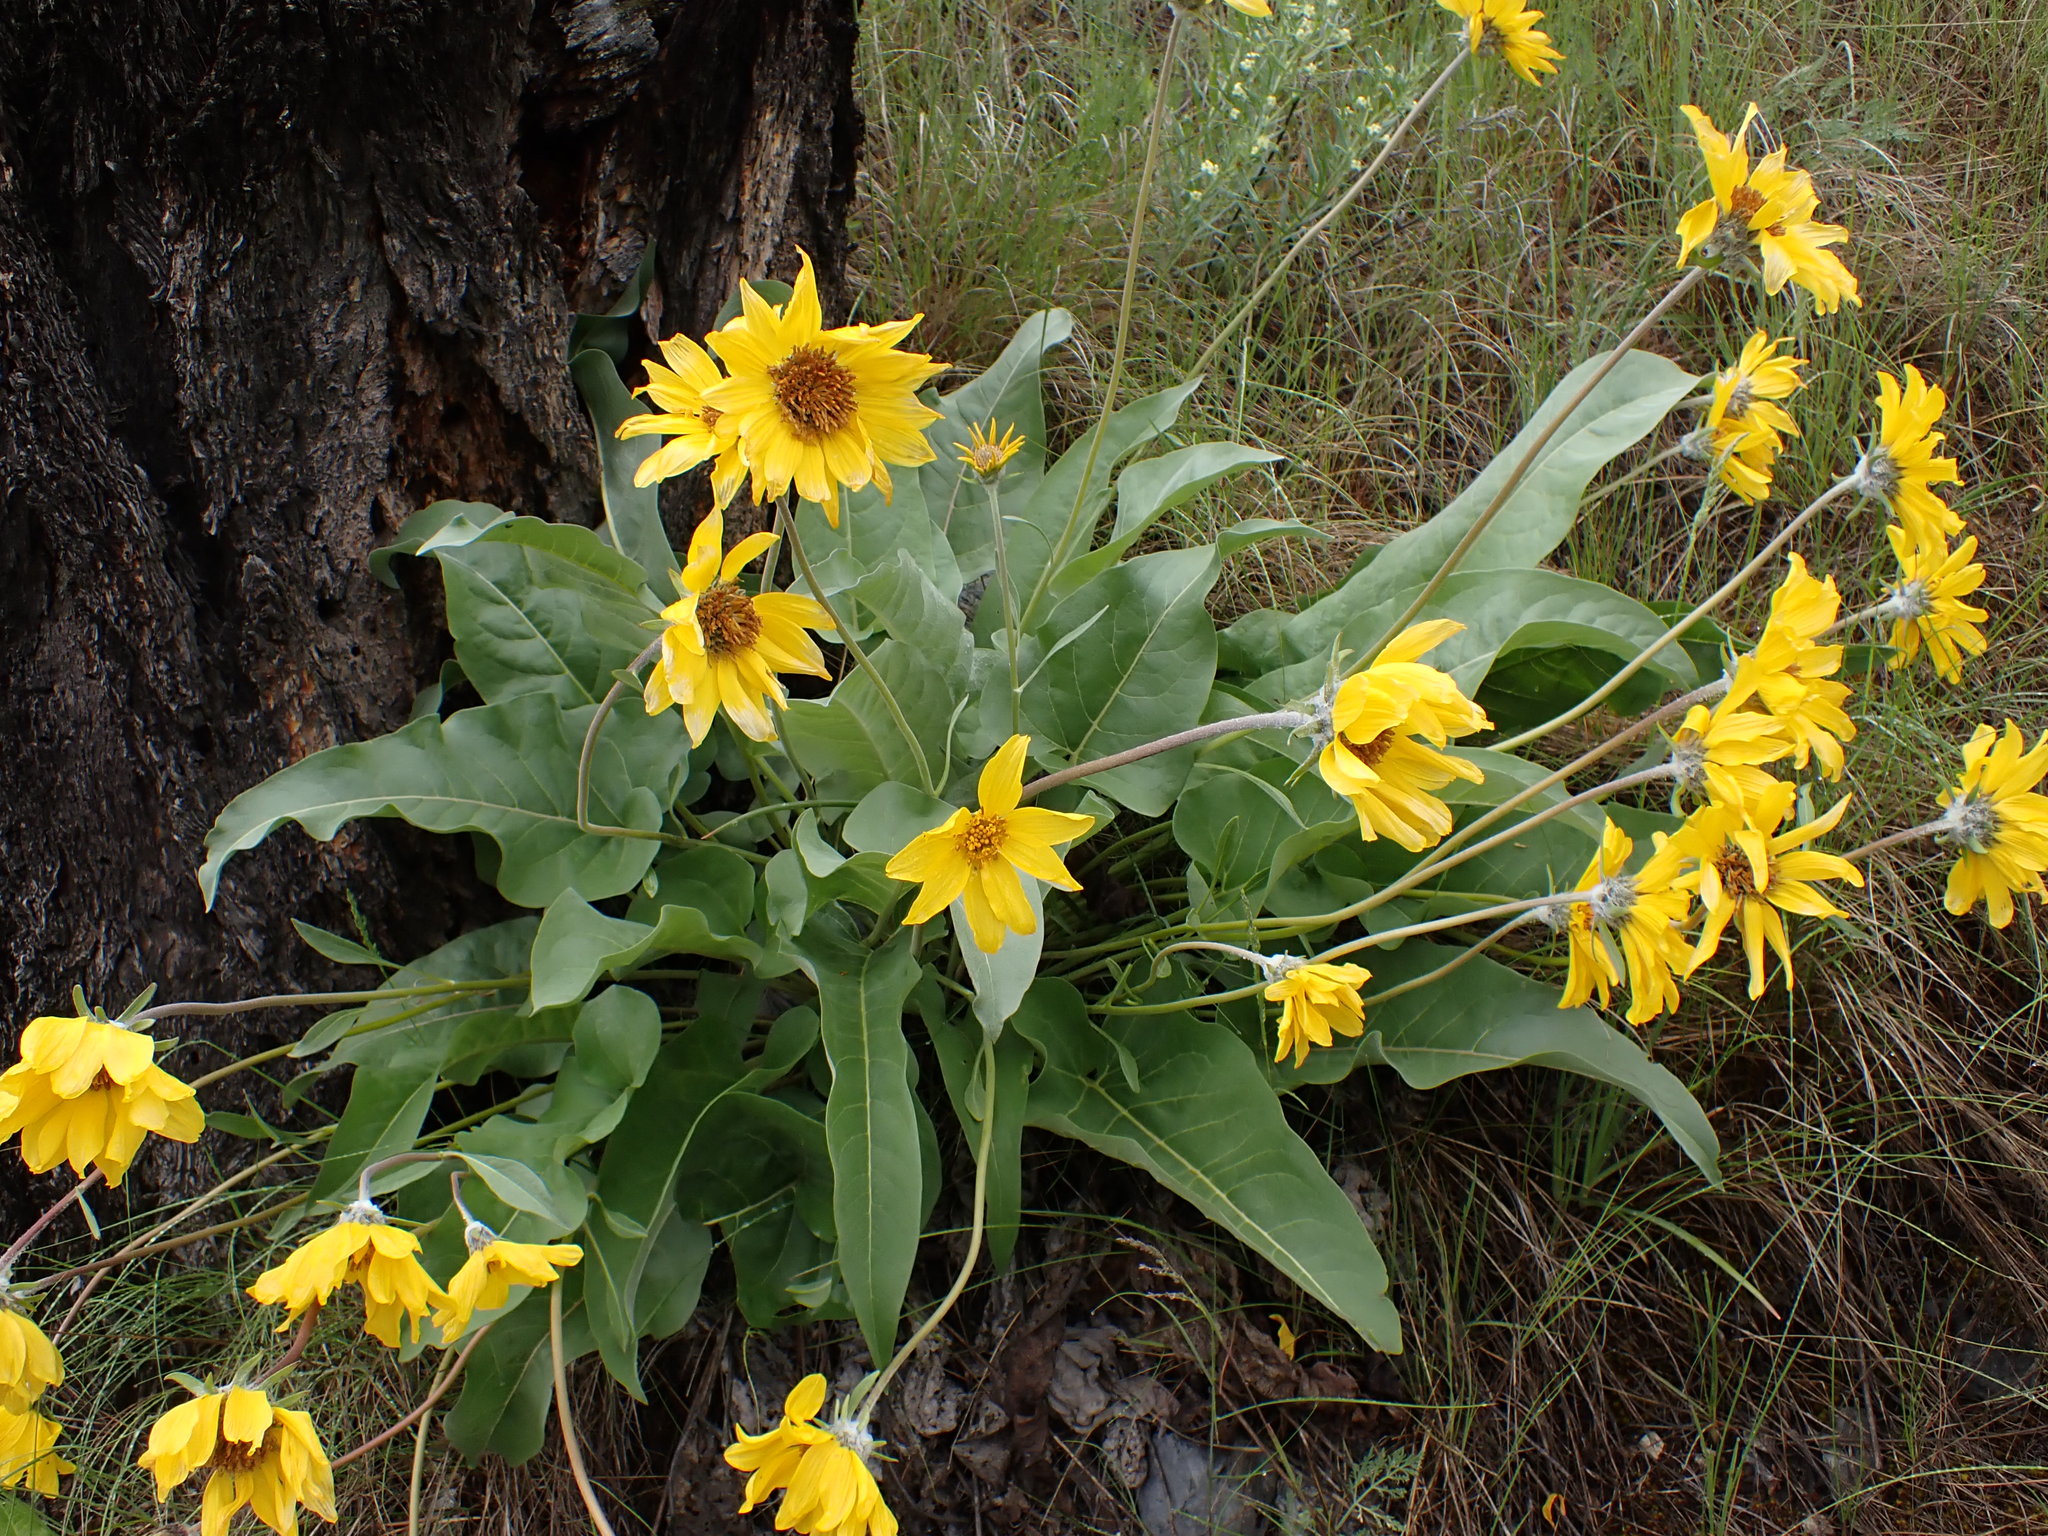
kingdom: Plantae
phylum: Tracheophyta
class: Magnoliopsida
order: Asterales
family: Asteraceae
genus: Wyethia
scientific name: Wyethia sagittata
